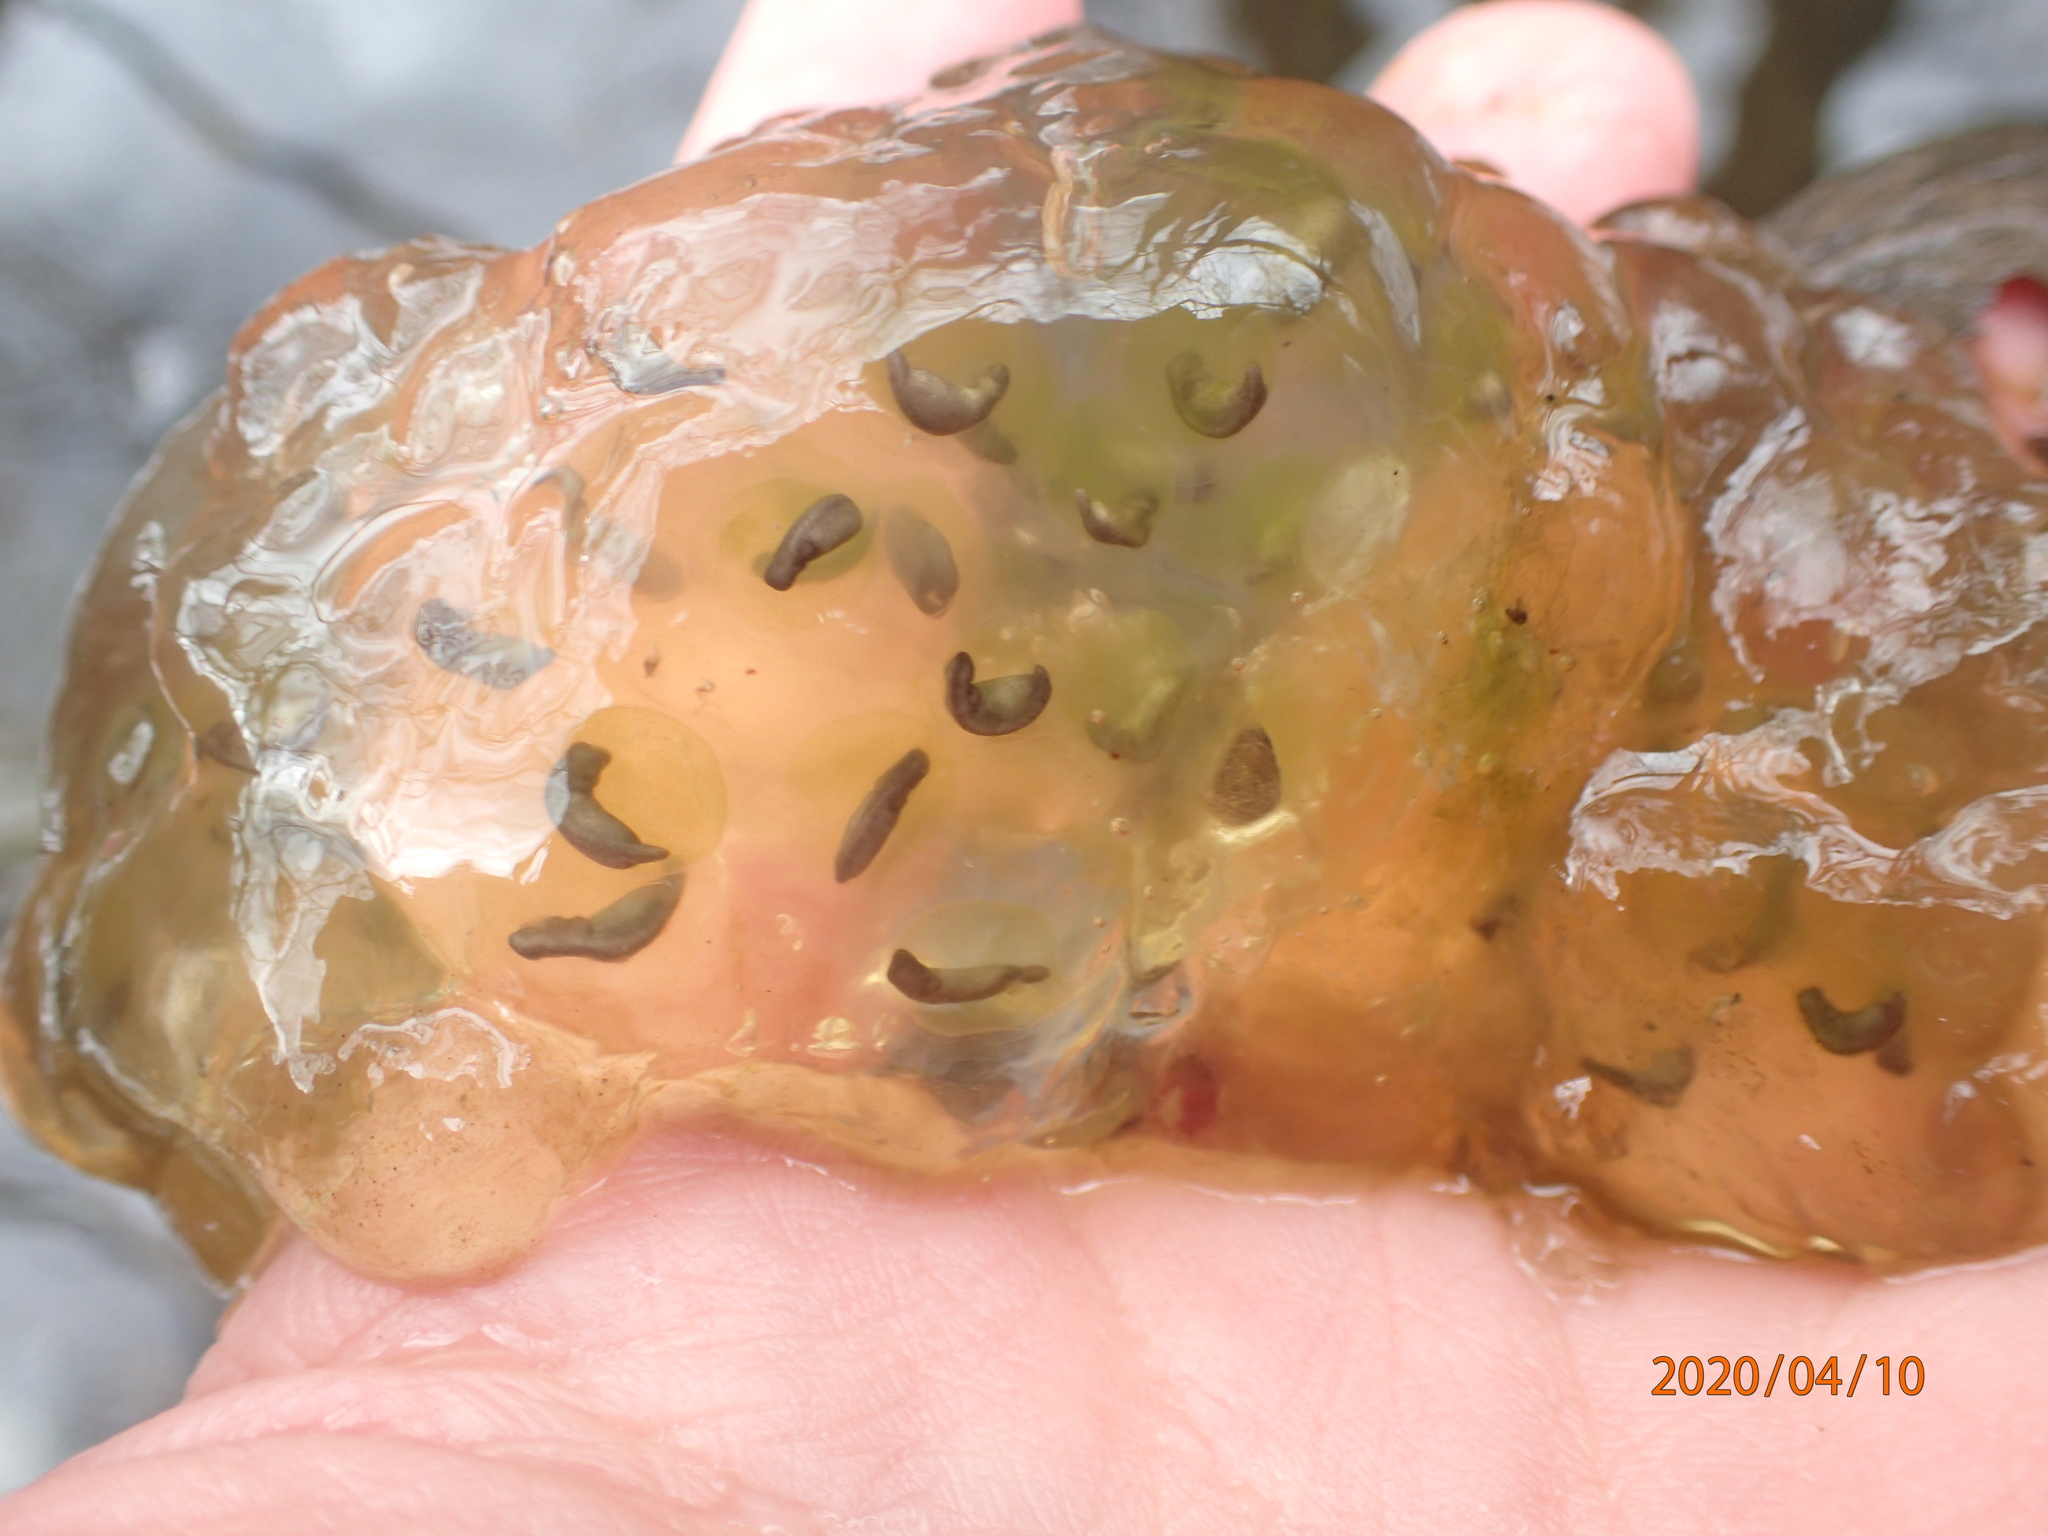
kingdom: Animalia
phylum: Chordata
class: Amphibia
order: Caudata
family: Ambystomatidae
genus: Ambystoma
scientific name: Ambystoma maculatum
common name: Spotted salamander
